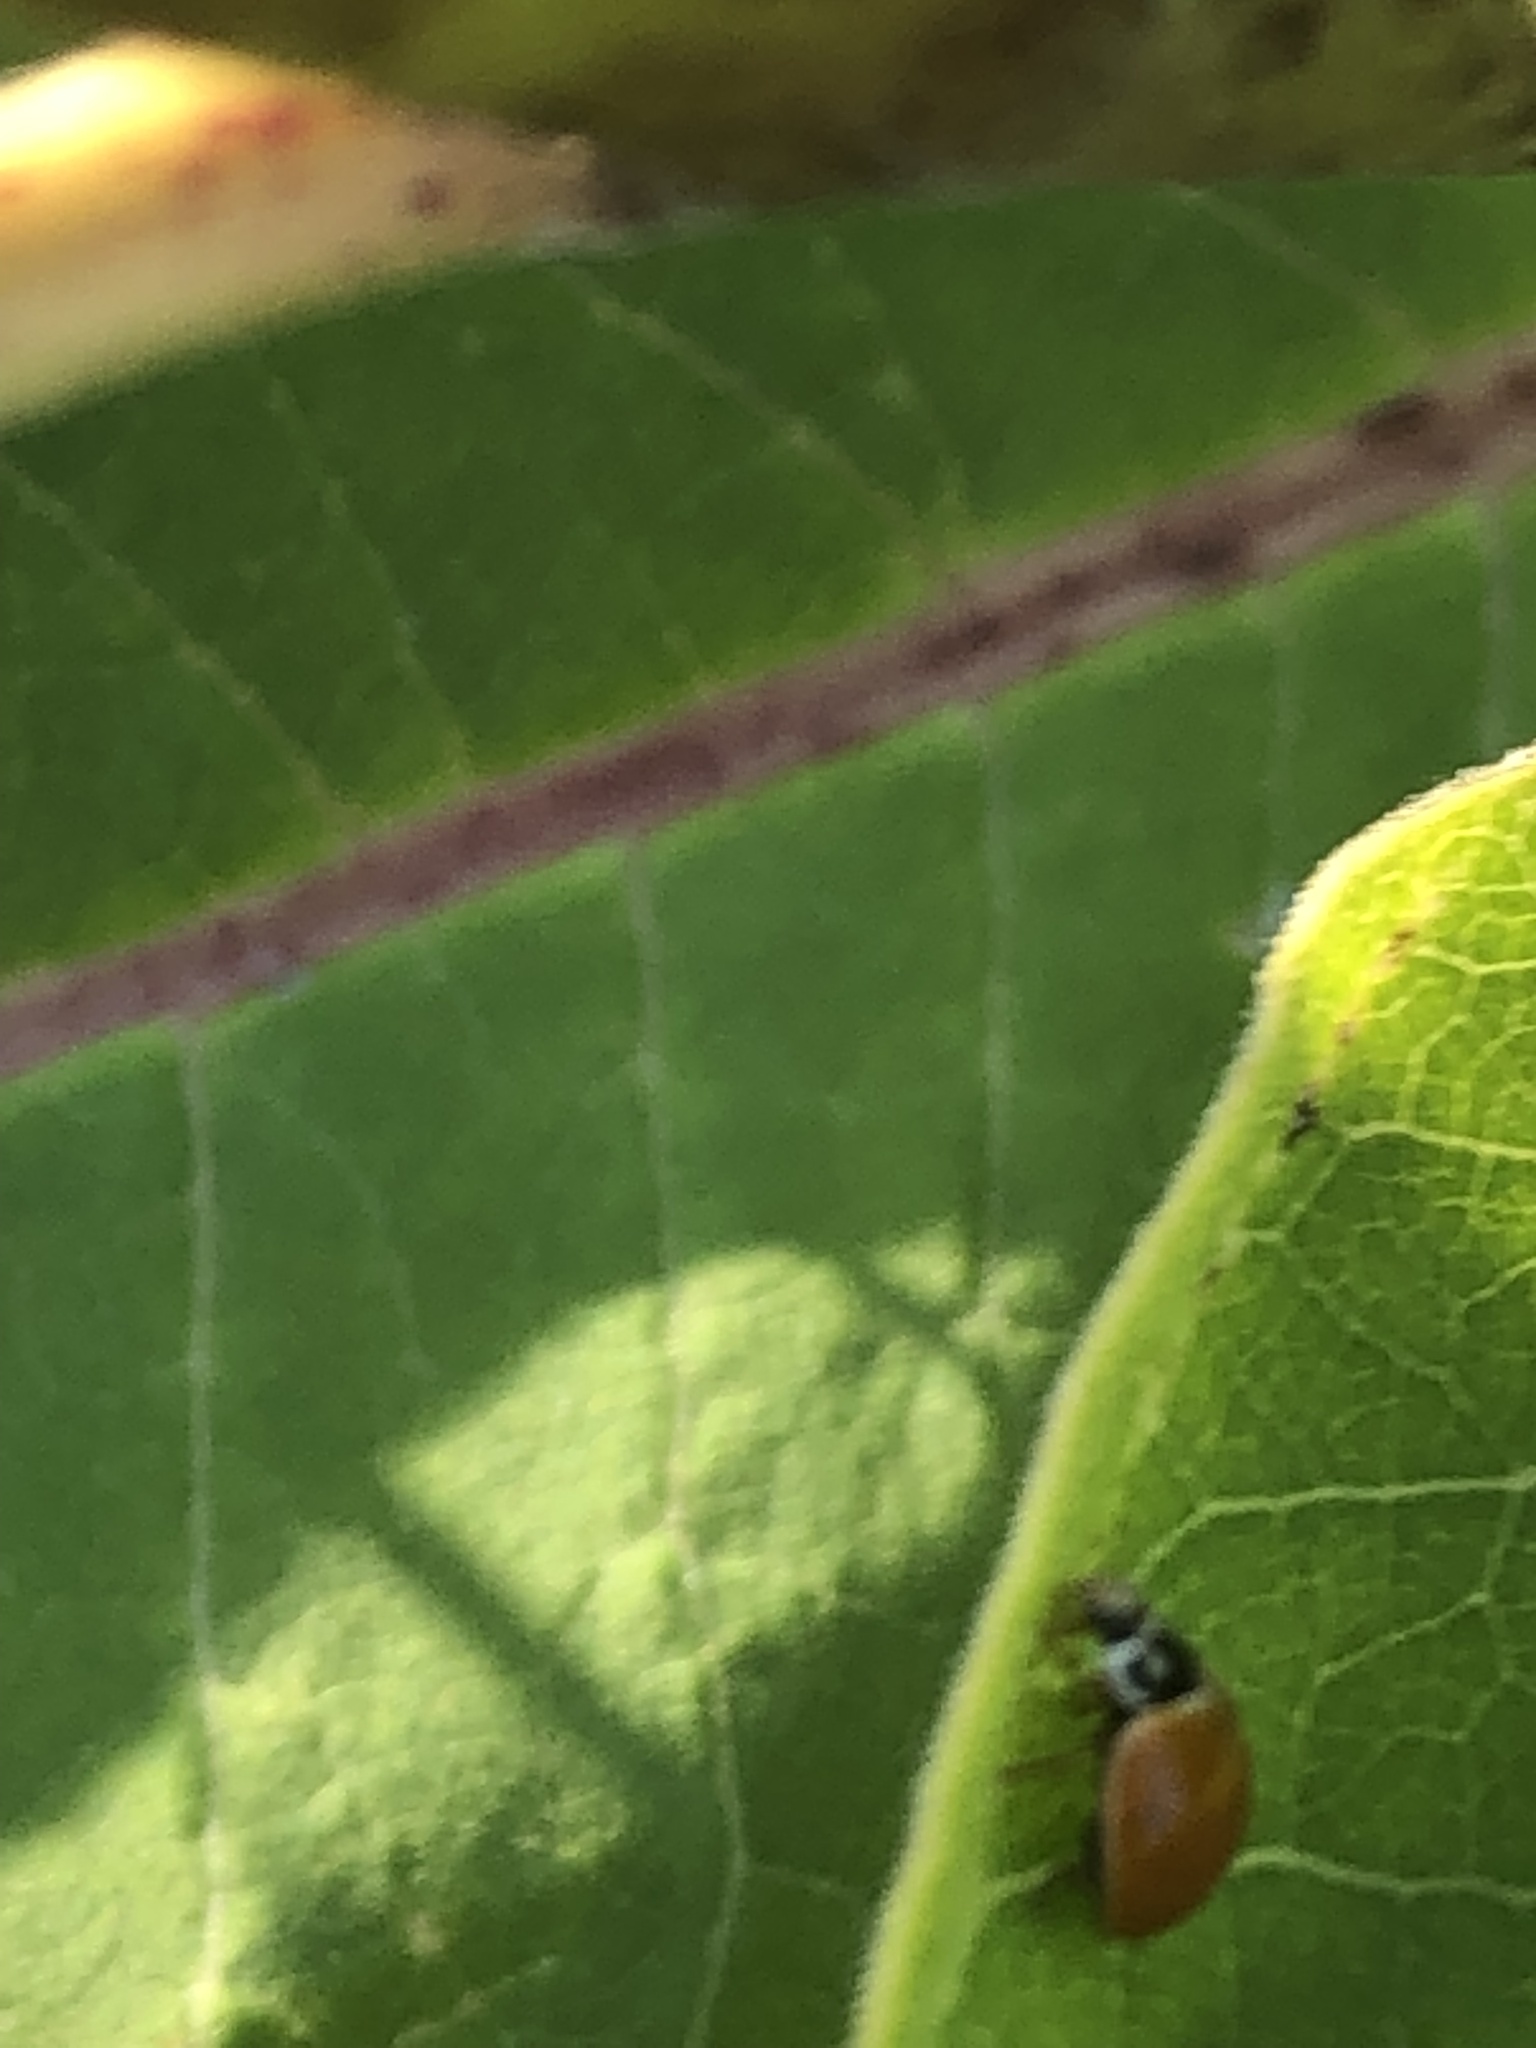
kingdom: Animalia
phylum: Arthropoda
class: Insecta
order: Coleoptera
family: Coccinellidae
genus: Cycloneda
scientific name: Cycloneda munda
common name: Polished lady beetle
